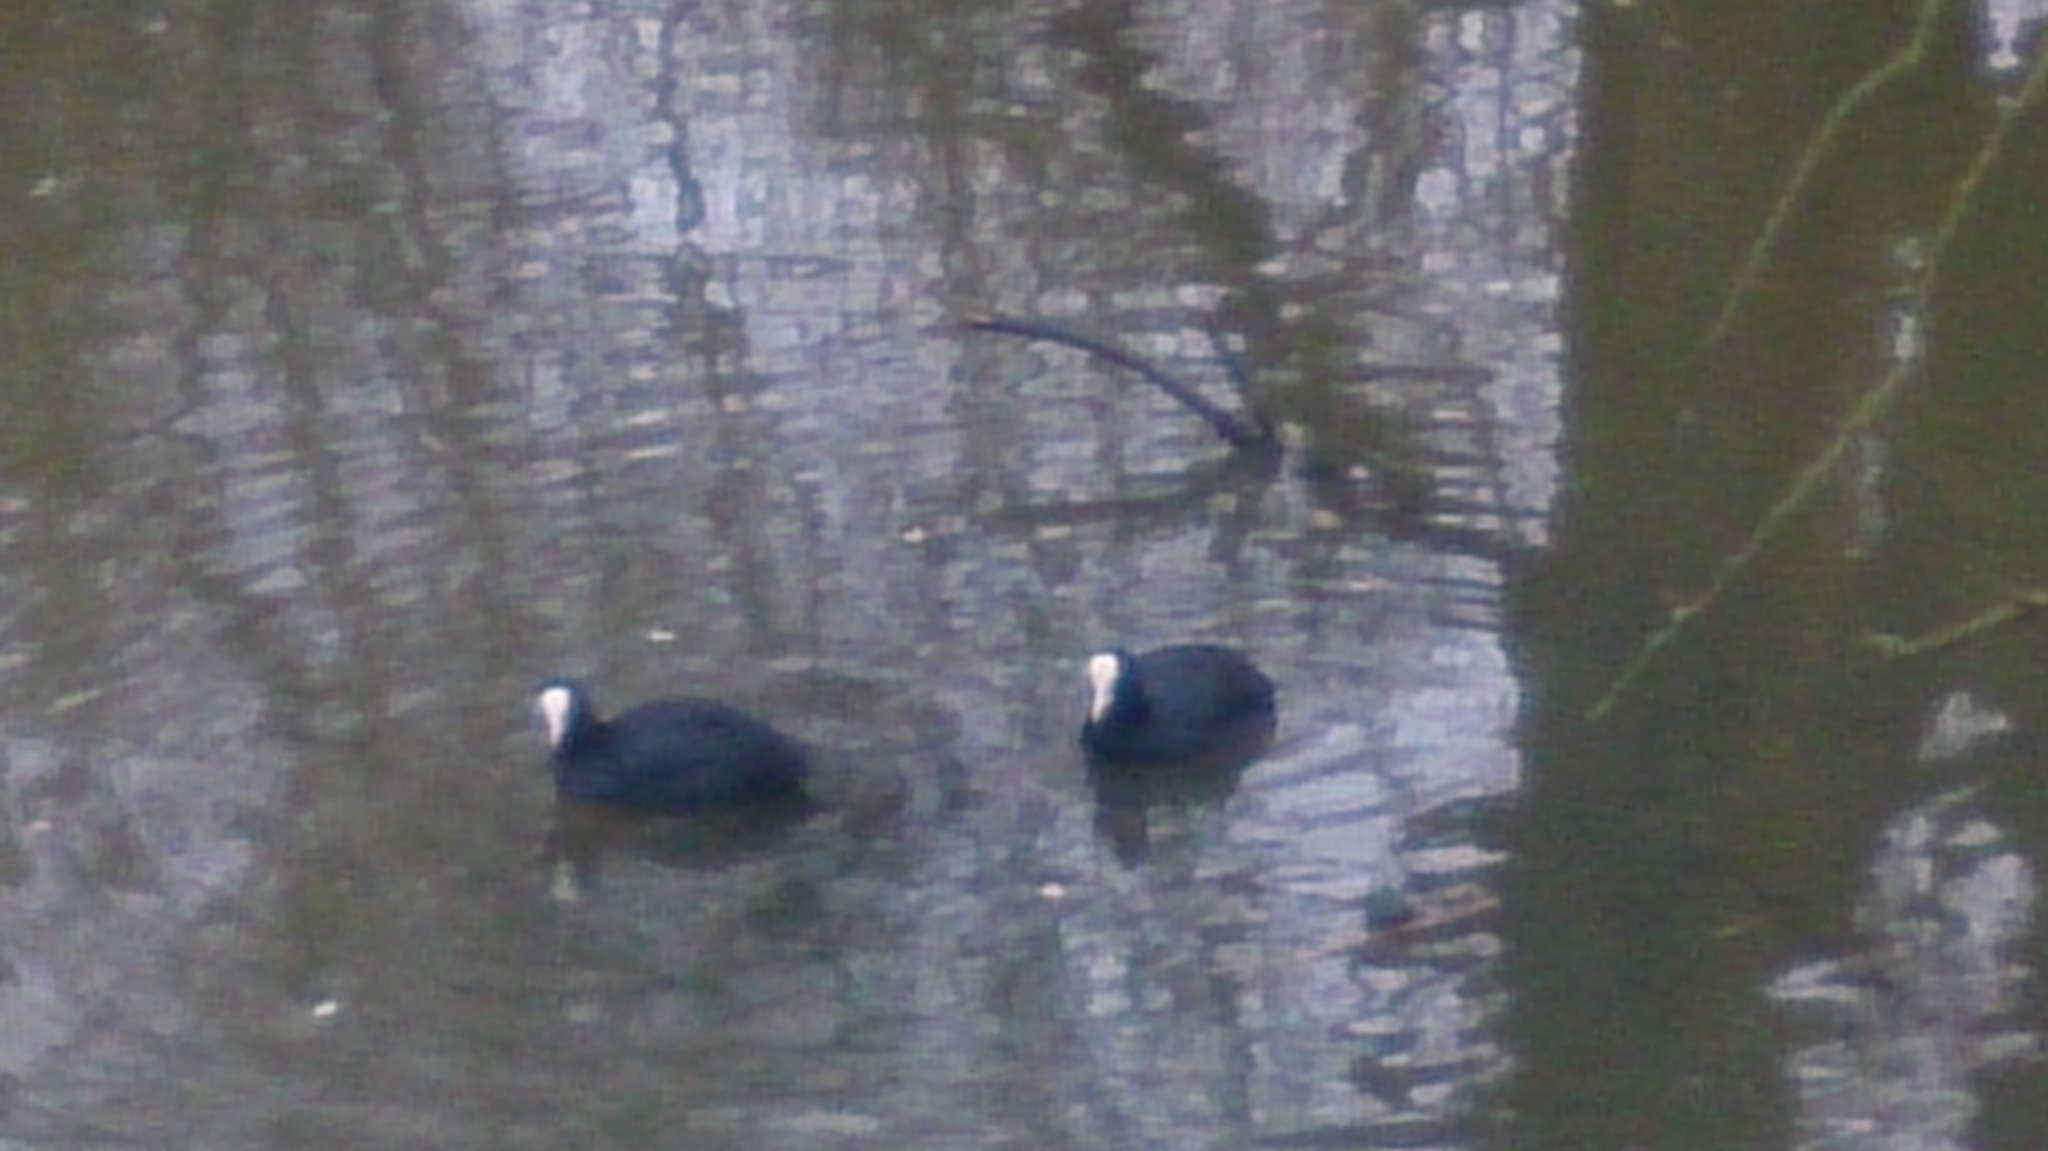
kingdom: Animalia
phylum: Chordata
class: Aves
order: Gruiformes
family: Rallidae
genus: Fulica
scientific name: Fulica atra
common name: Eurasian coot
